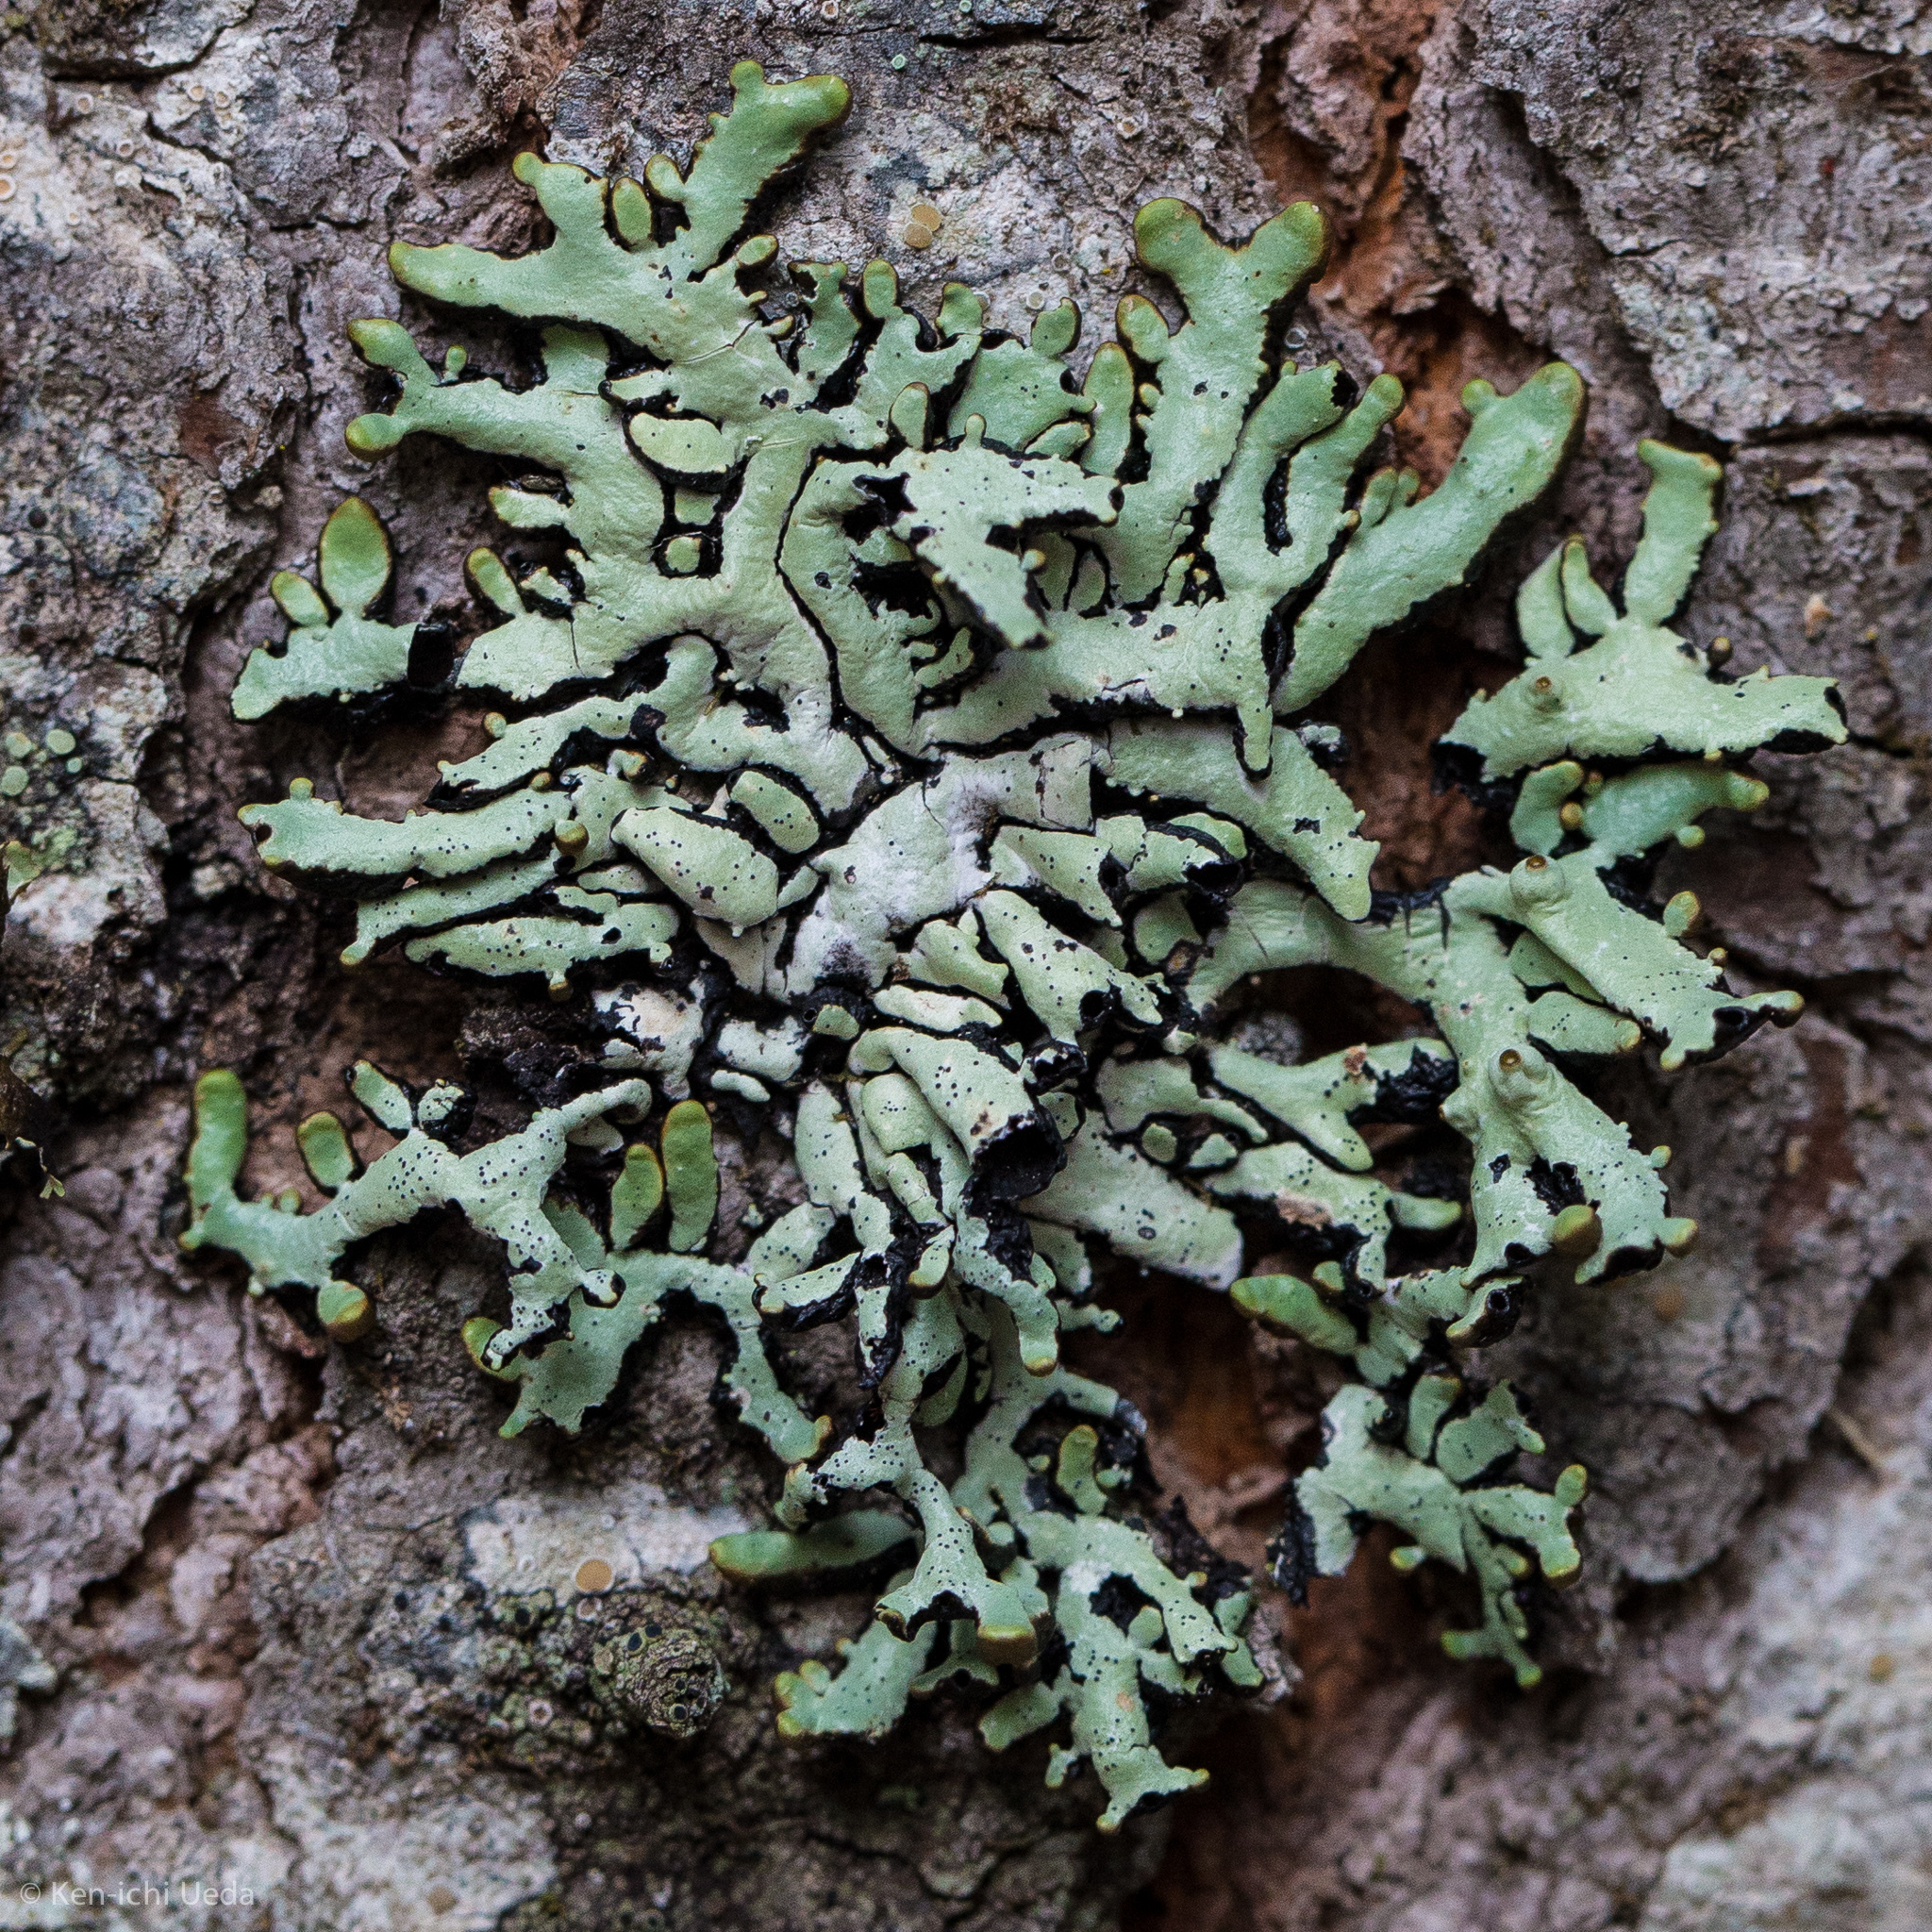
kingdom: Fungi
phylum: Ascomycota
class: Lecanoromycetes
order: Lecanorales
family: Parmeliaceae
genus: Hypogymnia
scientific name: Hypogymnia enteromorpha
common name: Beaded tube lichen
